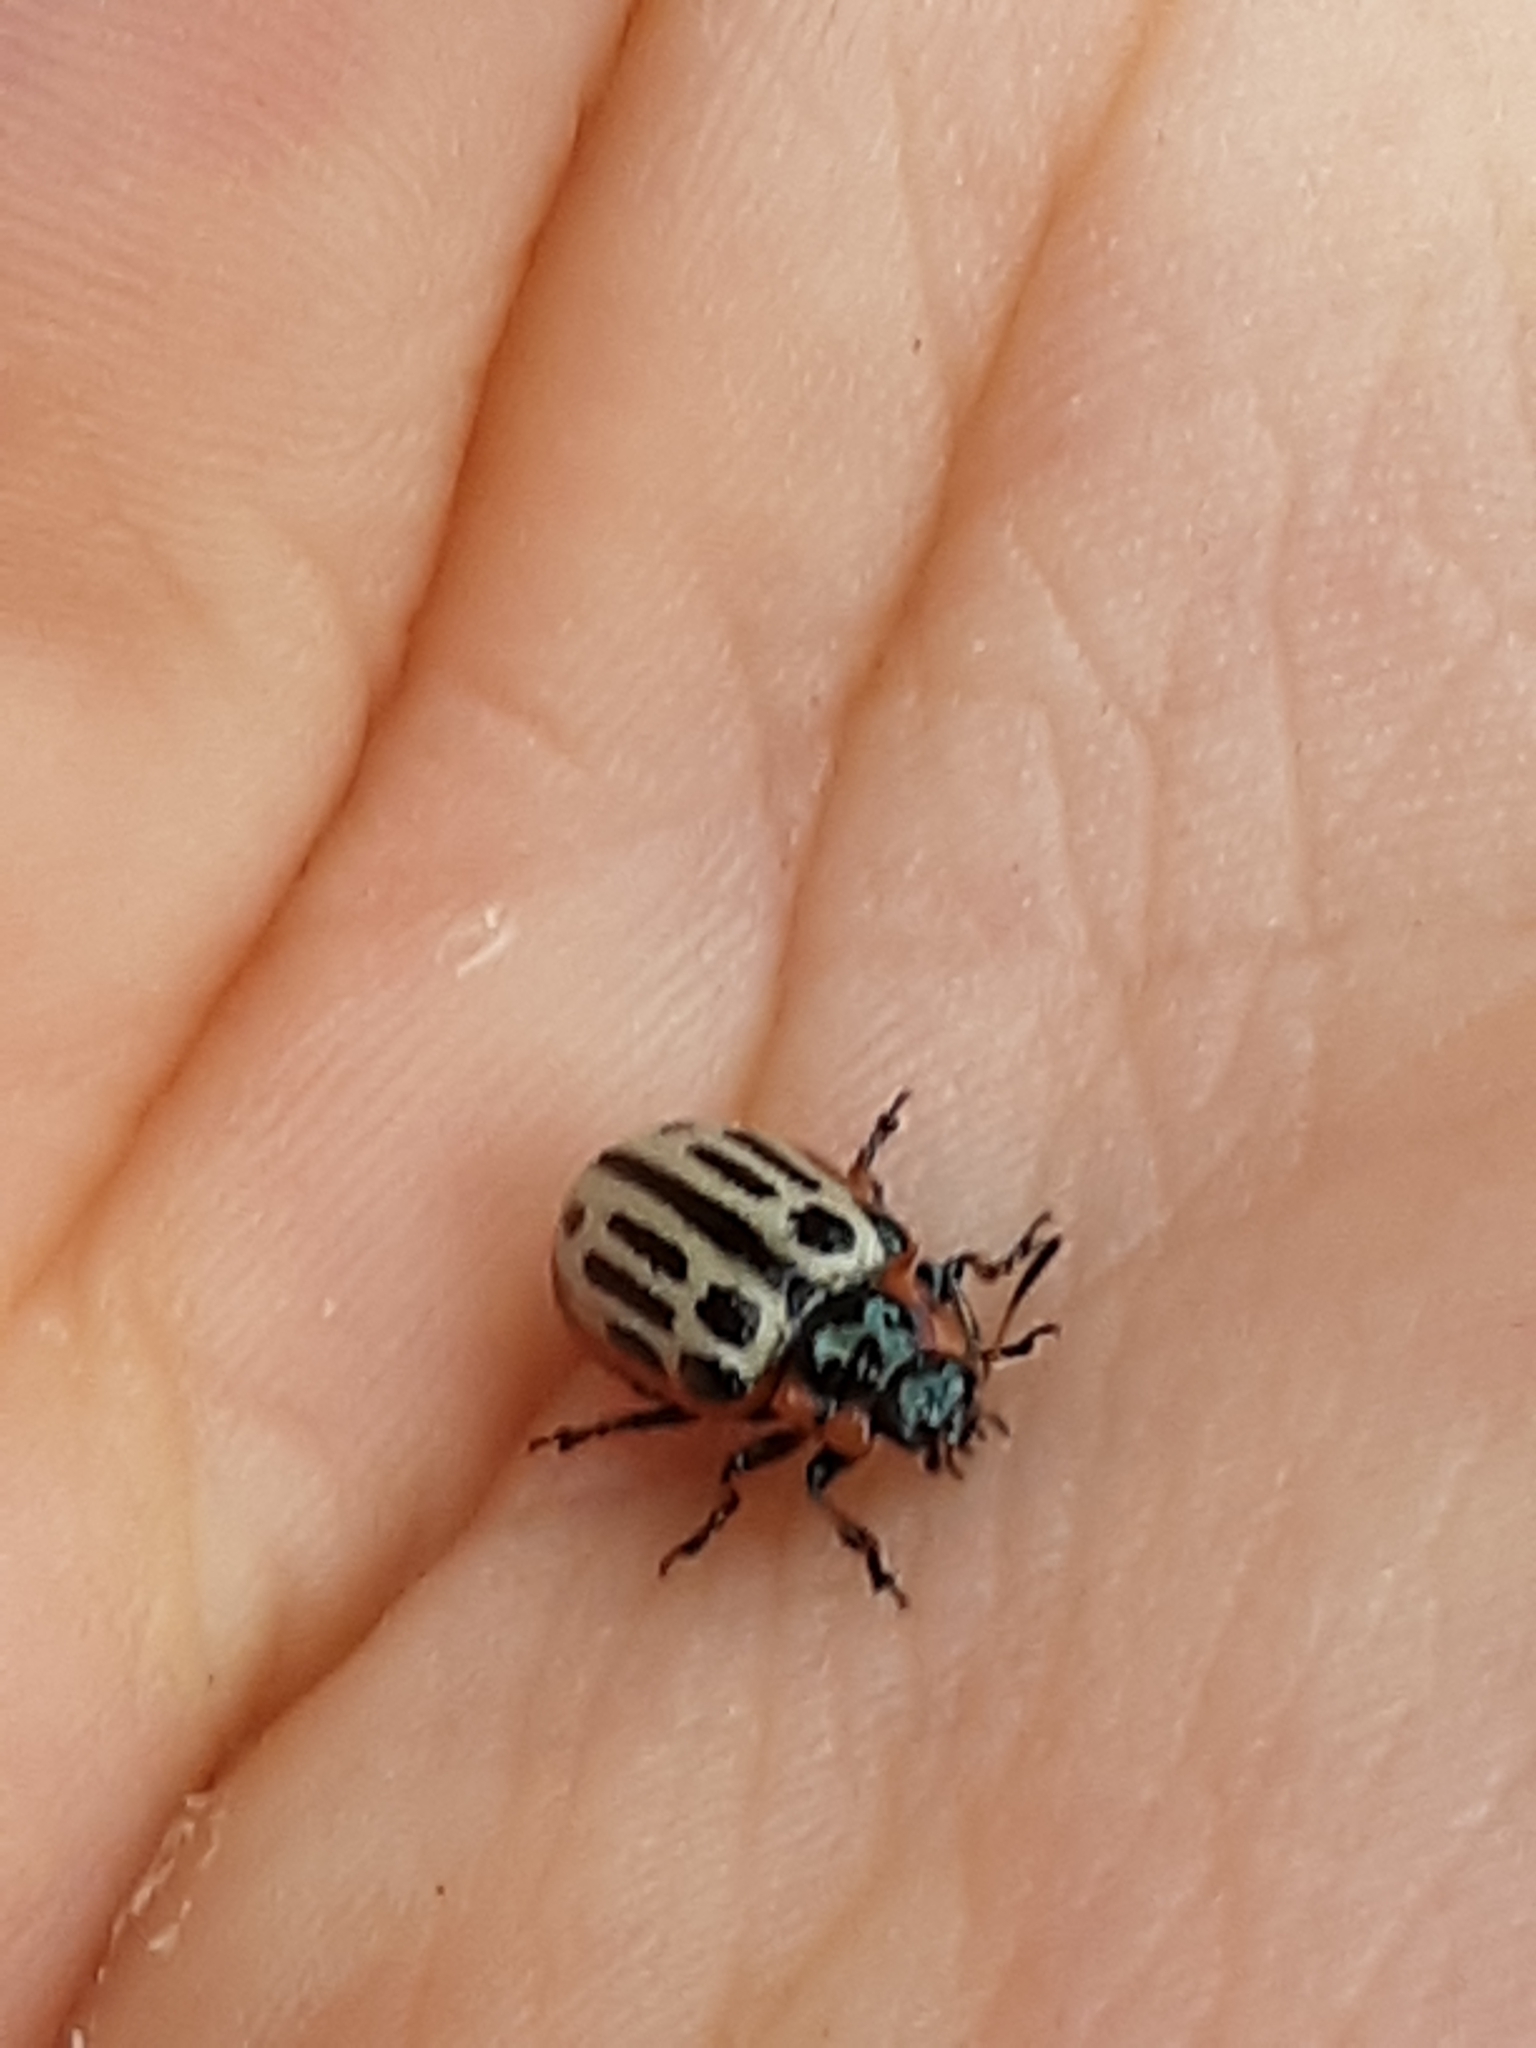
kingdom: Animalia
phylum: Arthropoda
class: Insecta
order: Coleoptera
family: Chrysomelidae
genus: Aethiopocassis
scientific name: Aethiopocassis scripta
